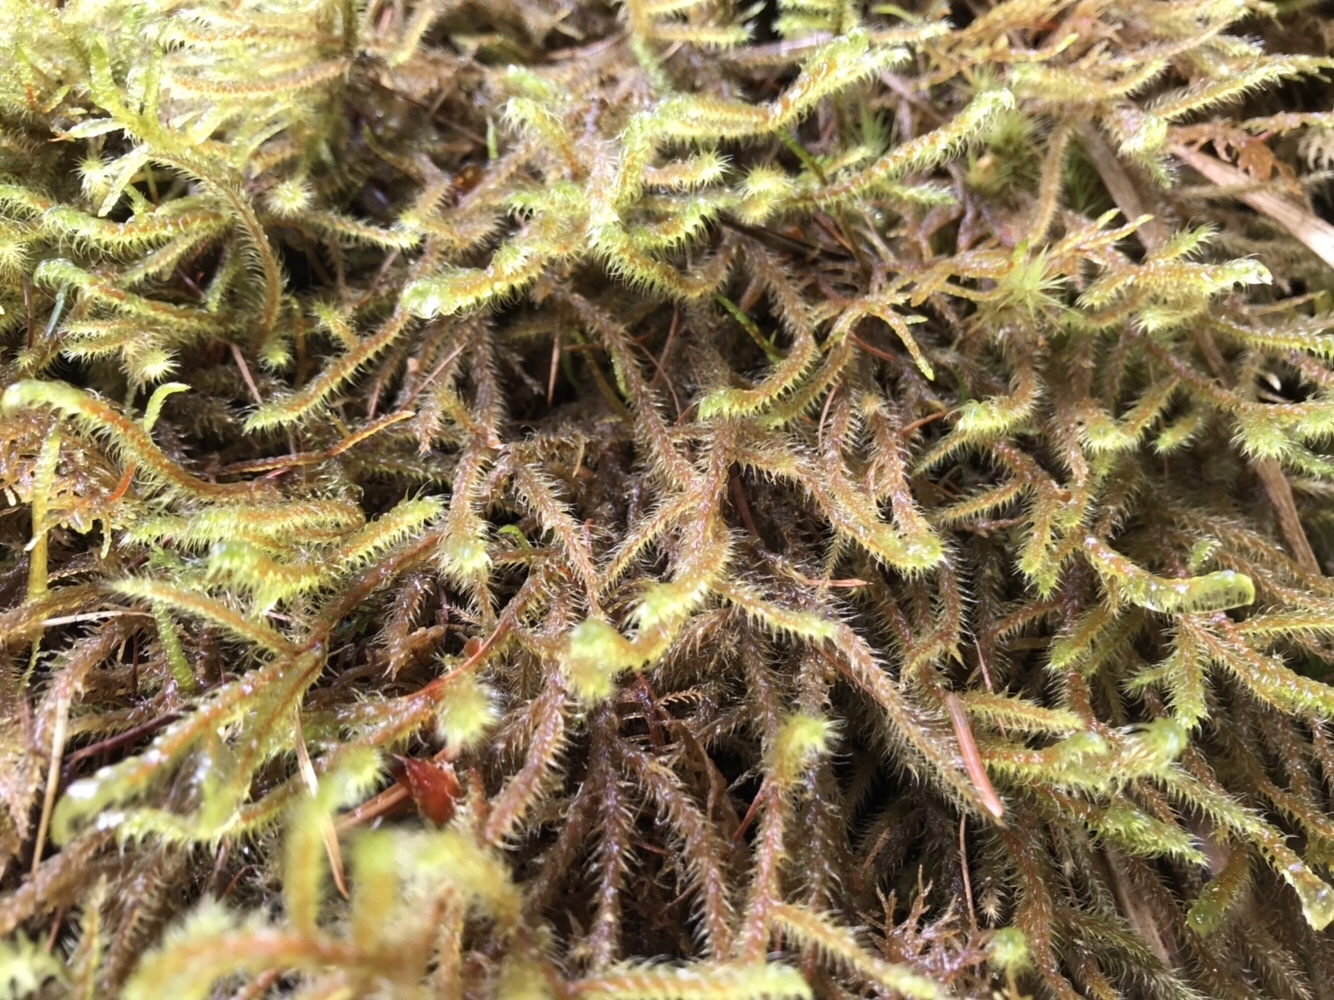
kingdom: Plantae
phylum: Bryophyta
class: Bryopsida
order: Hypnales
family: Hylocomiaceae
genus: Rhytidiadelphus
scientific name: Rhytidiadelphus loreus
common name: Lanky moss
